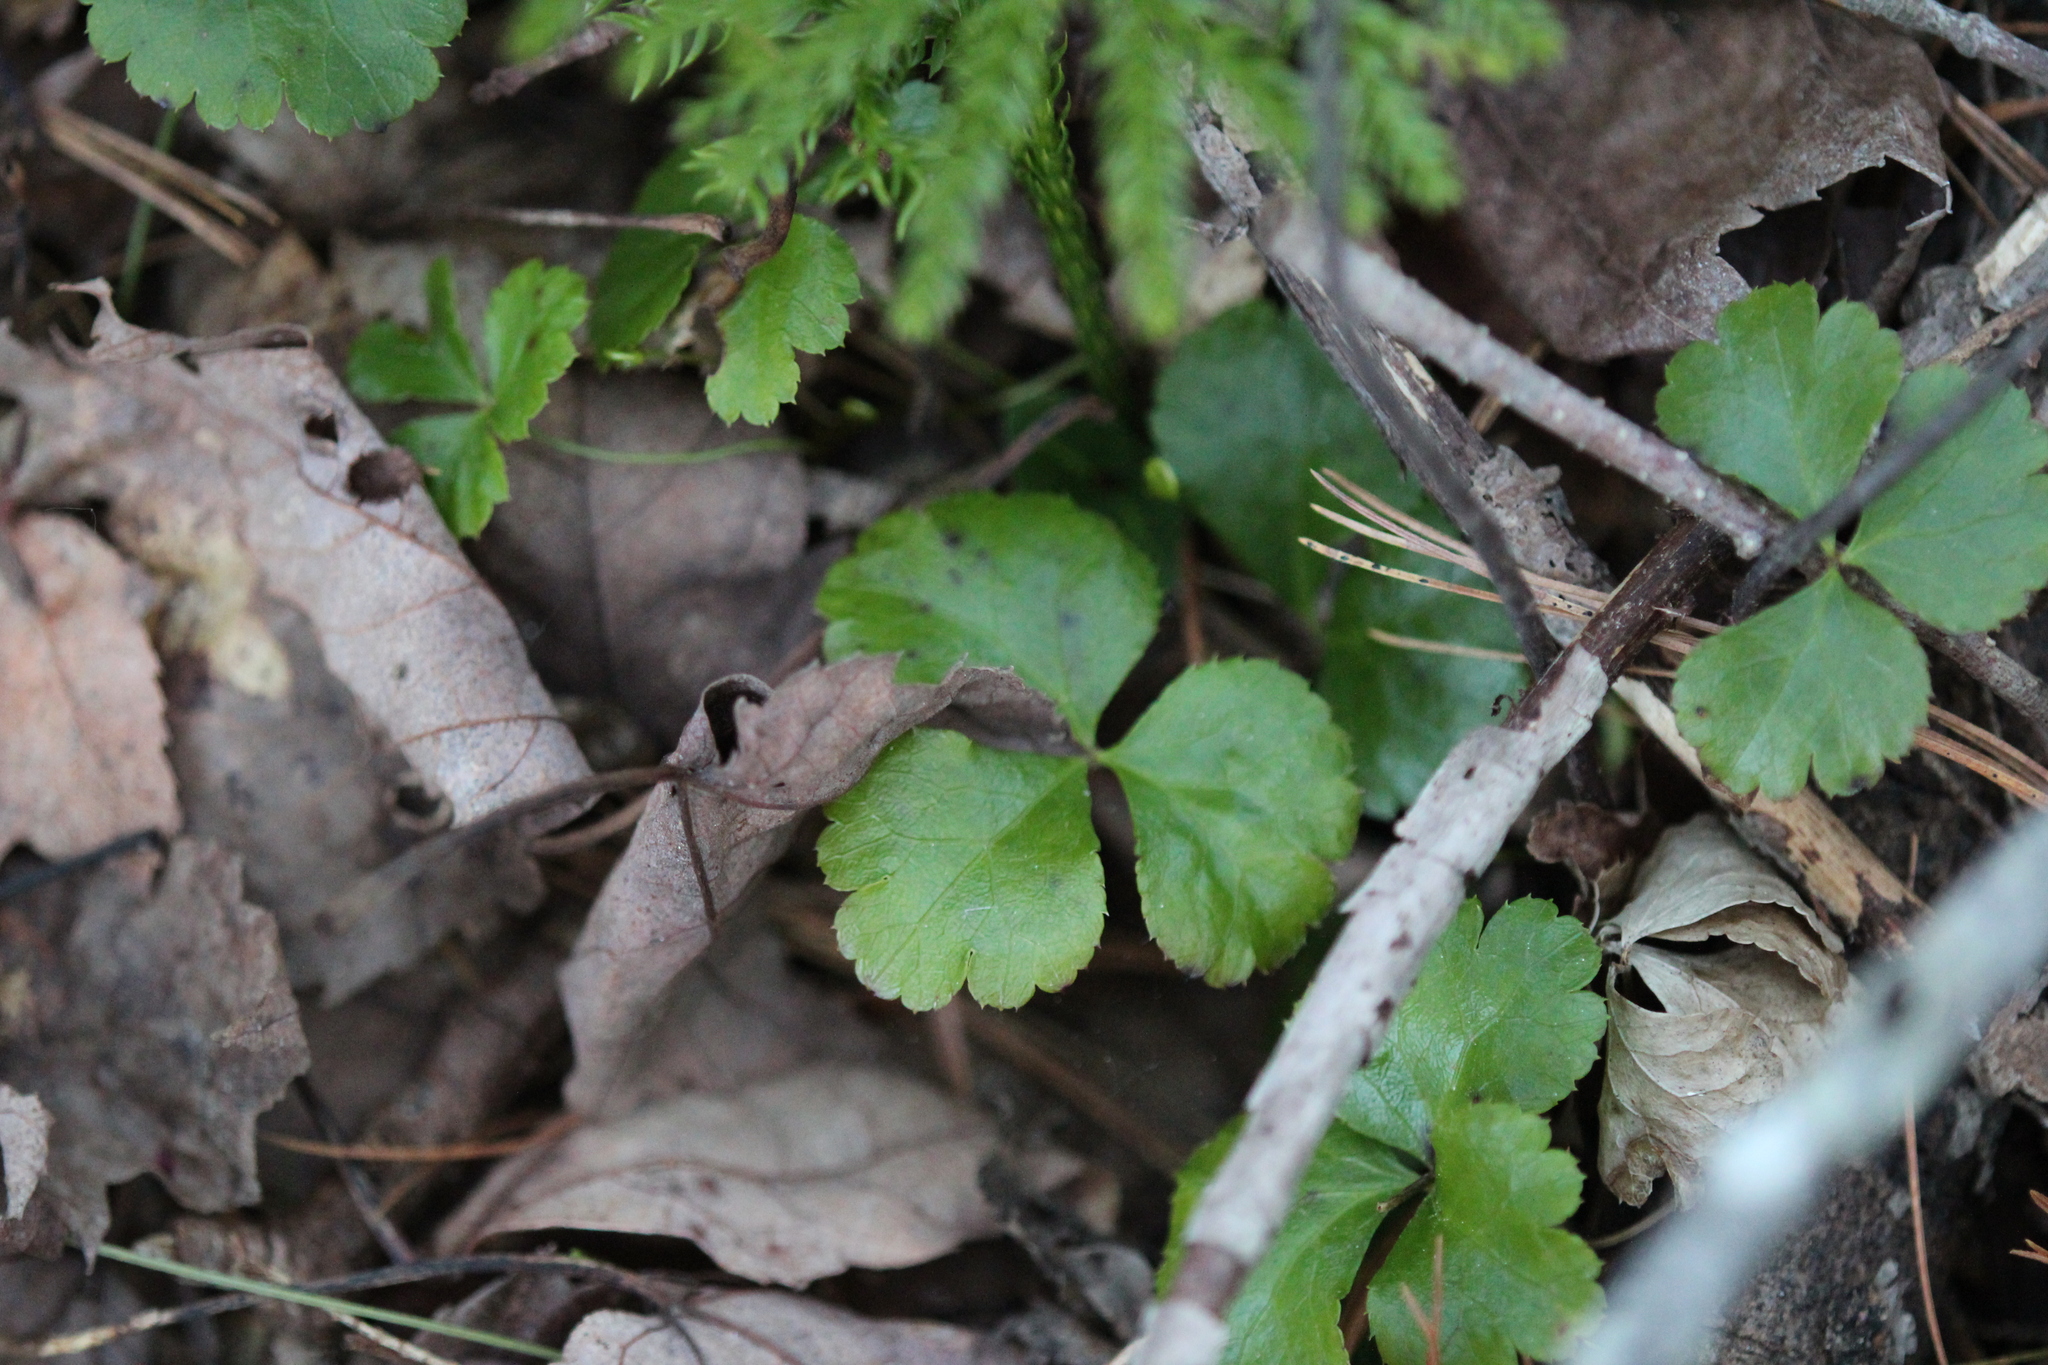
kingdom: Plantae
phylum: Tracheophyta
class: Magnoliopsida
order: Ranunculales
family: Ranunculaceae
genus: Coptis
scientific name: Coptis trifolia
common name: Canker-root
